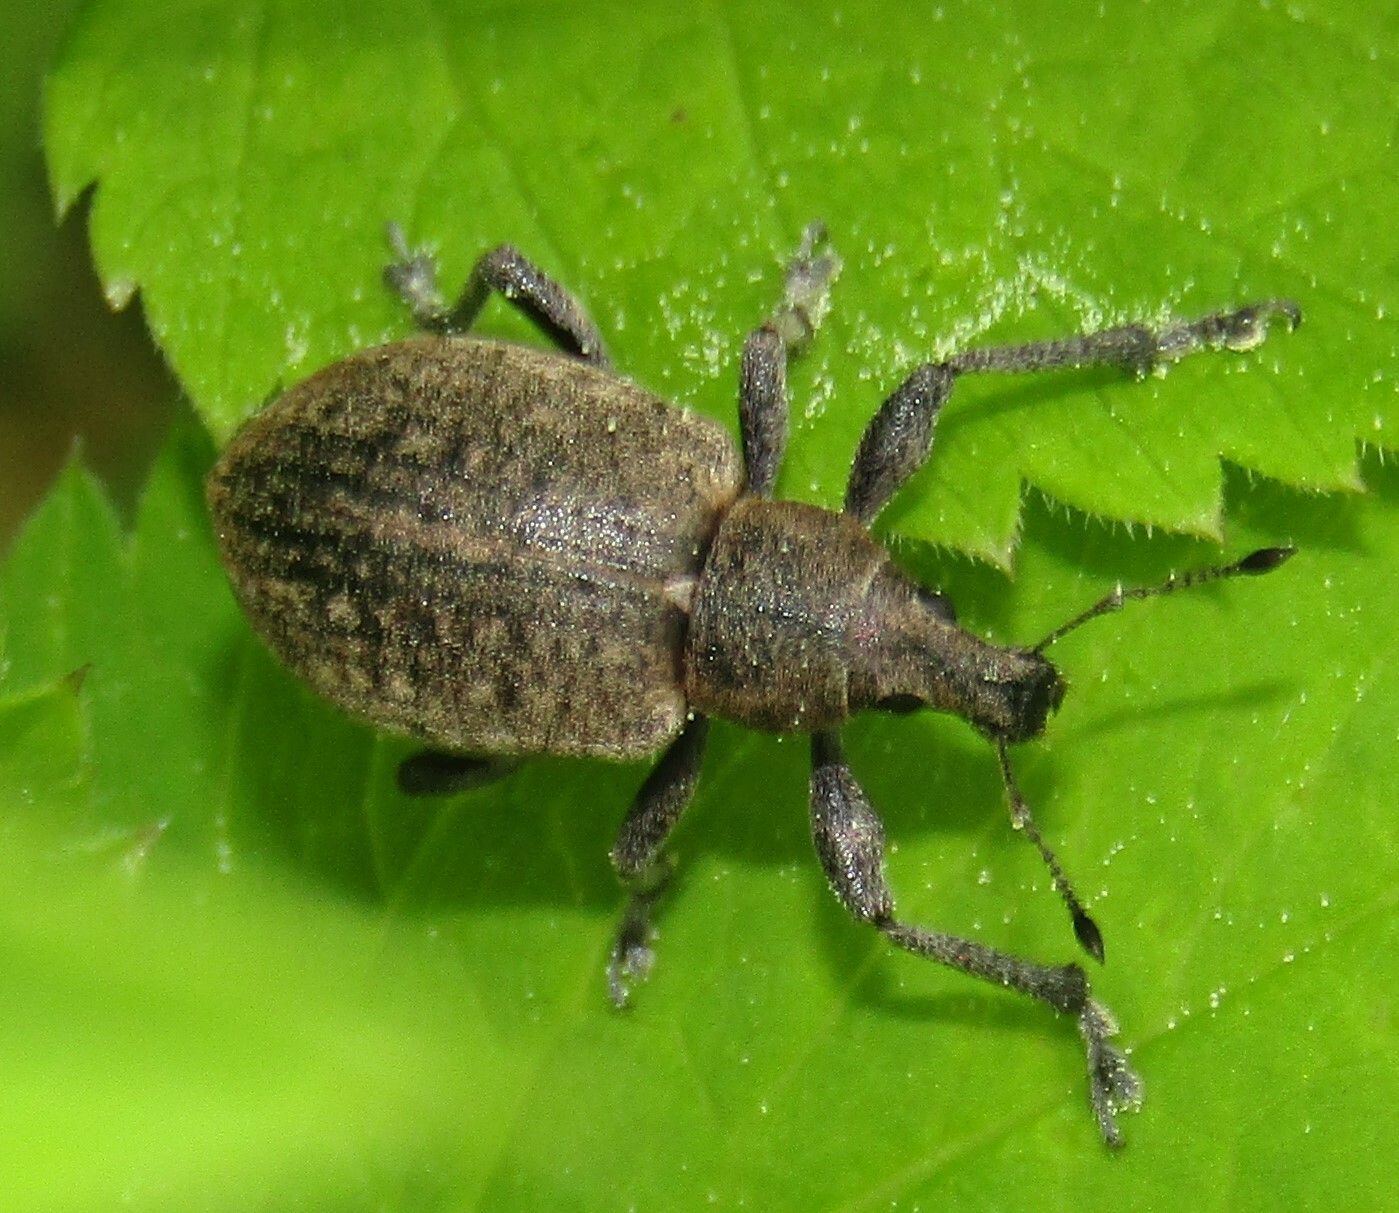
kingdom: Animalia
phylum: Arthropoda
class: Insecta
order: Coleoptera
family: Curculionidae
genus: Liophloeus
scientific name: Liophloeus tessulatus
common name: Weevil
